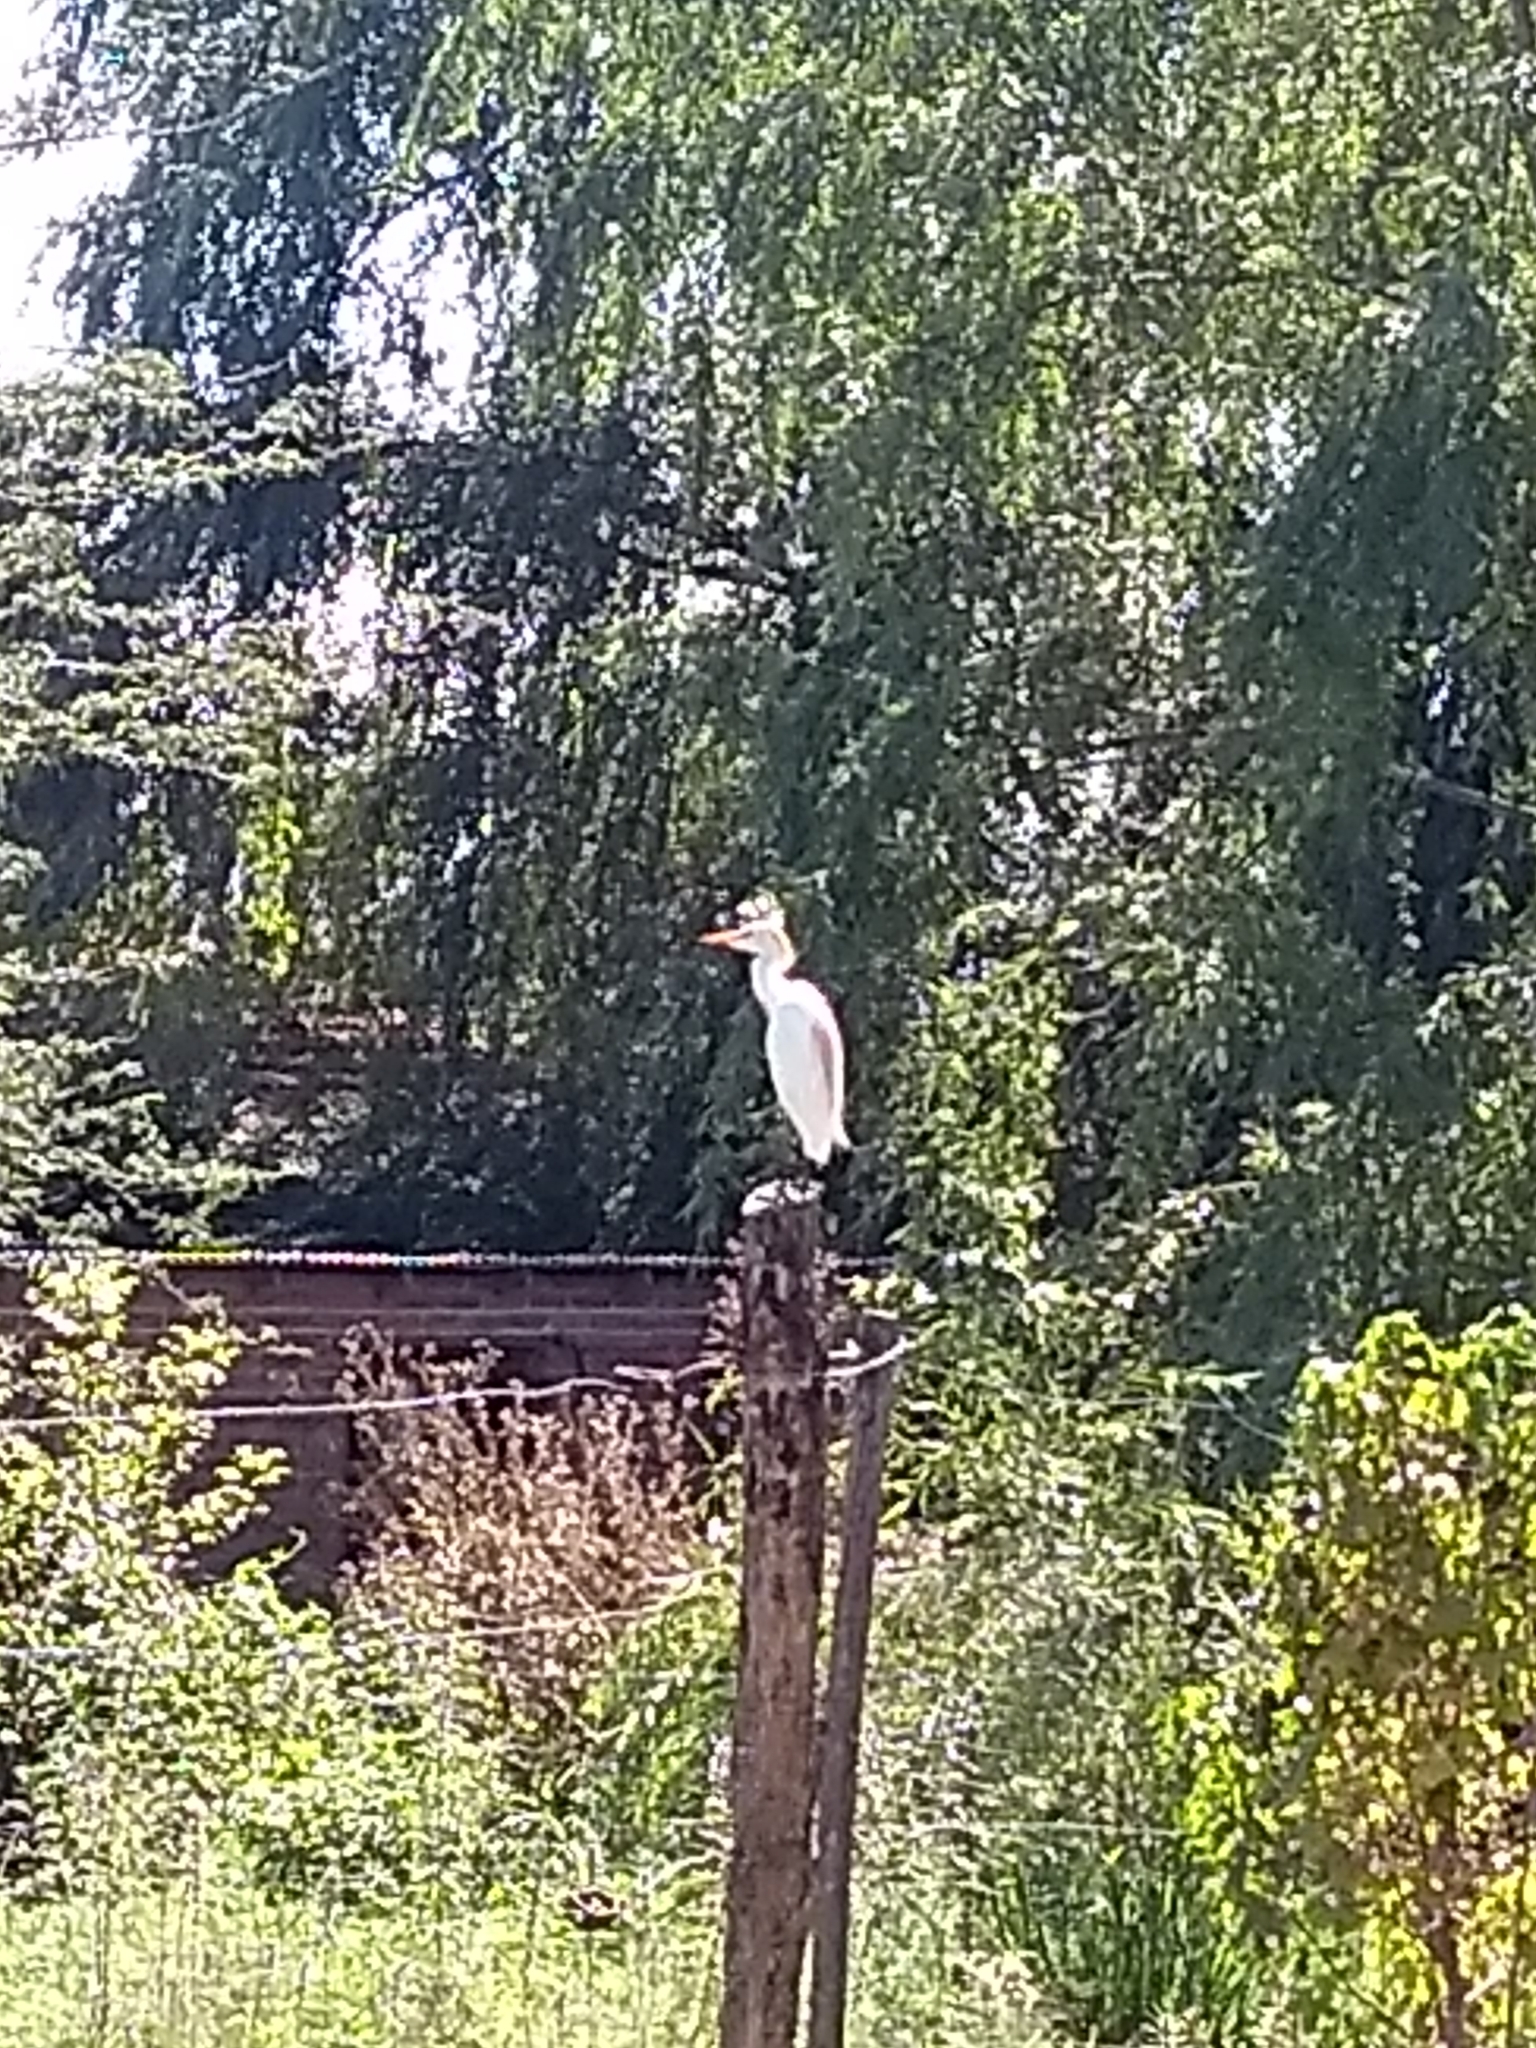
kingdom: Animalia
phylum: Chordata
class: Aves
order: Pelecaniformes
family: Ardeidae
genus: Bubulcus
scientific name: Bubulcus ibis
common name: Cattle egret
